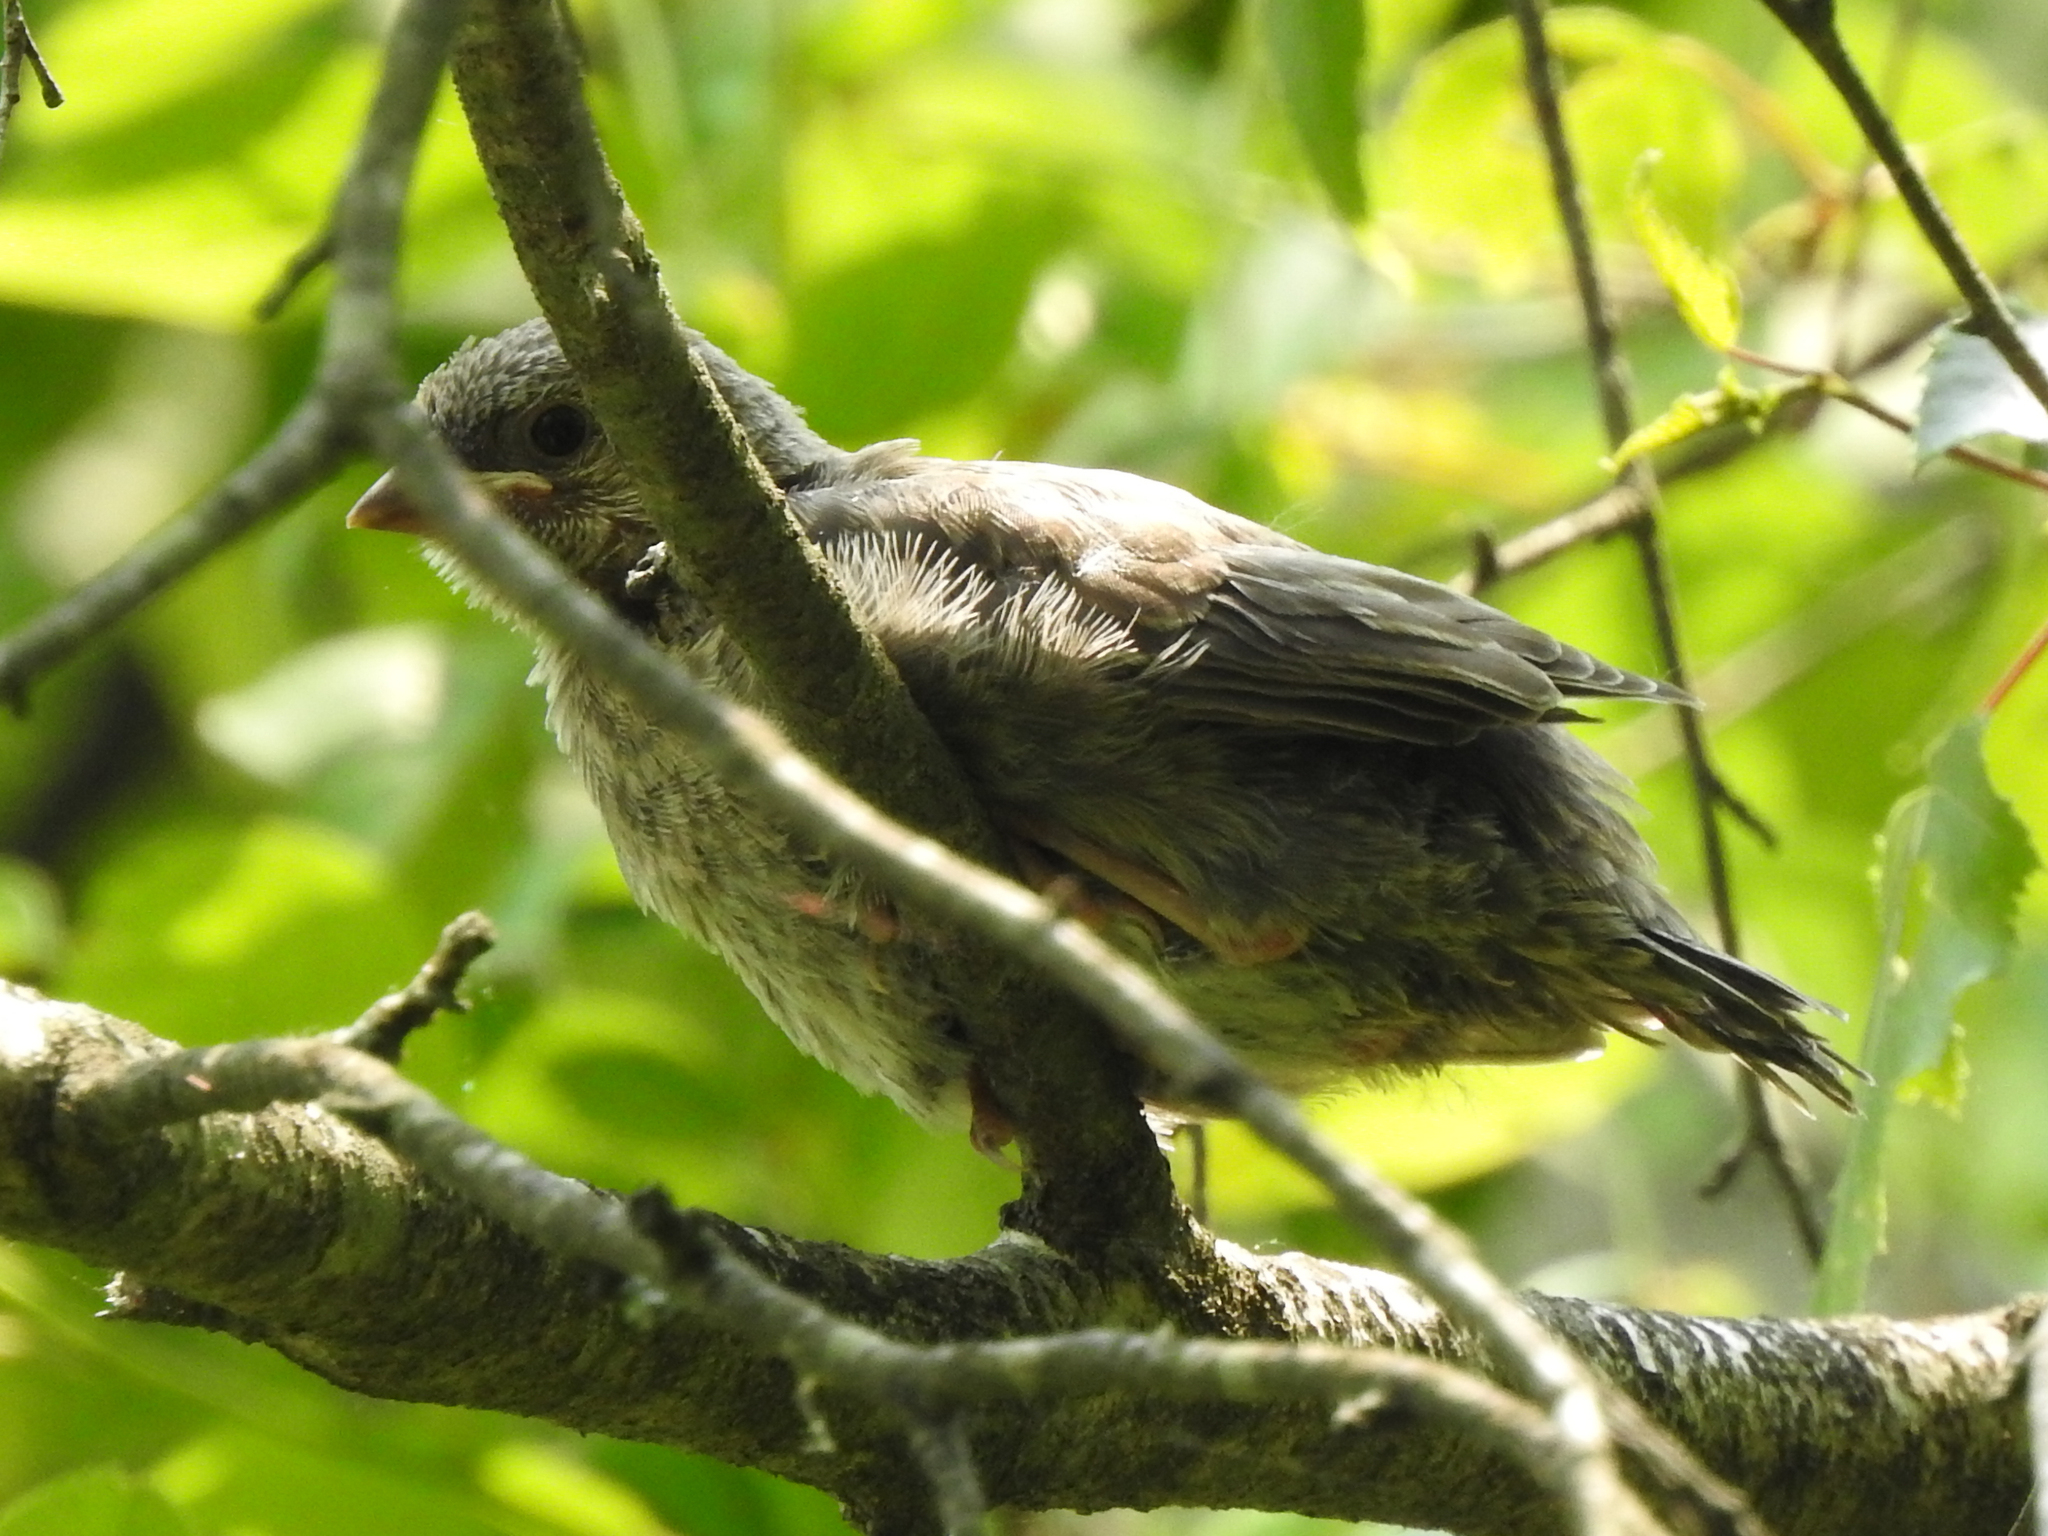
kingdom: Animalia
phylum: Chordata
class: Aves
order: Passeriformes
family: Icteridae
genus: Molothrus
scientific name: Molothrus ater
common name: Brown-headed cowbird
